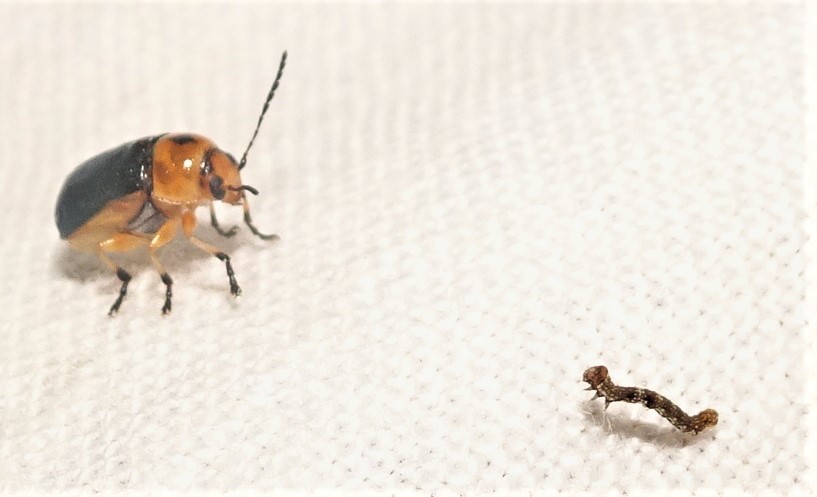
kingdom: Animalia
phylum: Arthropoda
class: Insecta
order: Coleoptera
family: Chrysomelidae
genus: Aporocera
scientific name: Aporocera
